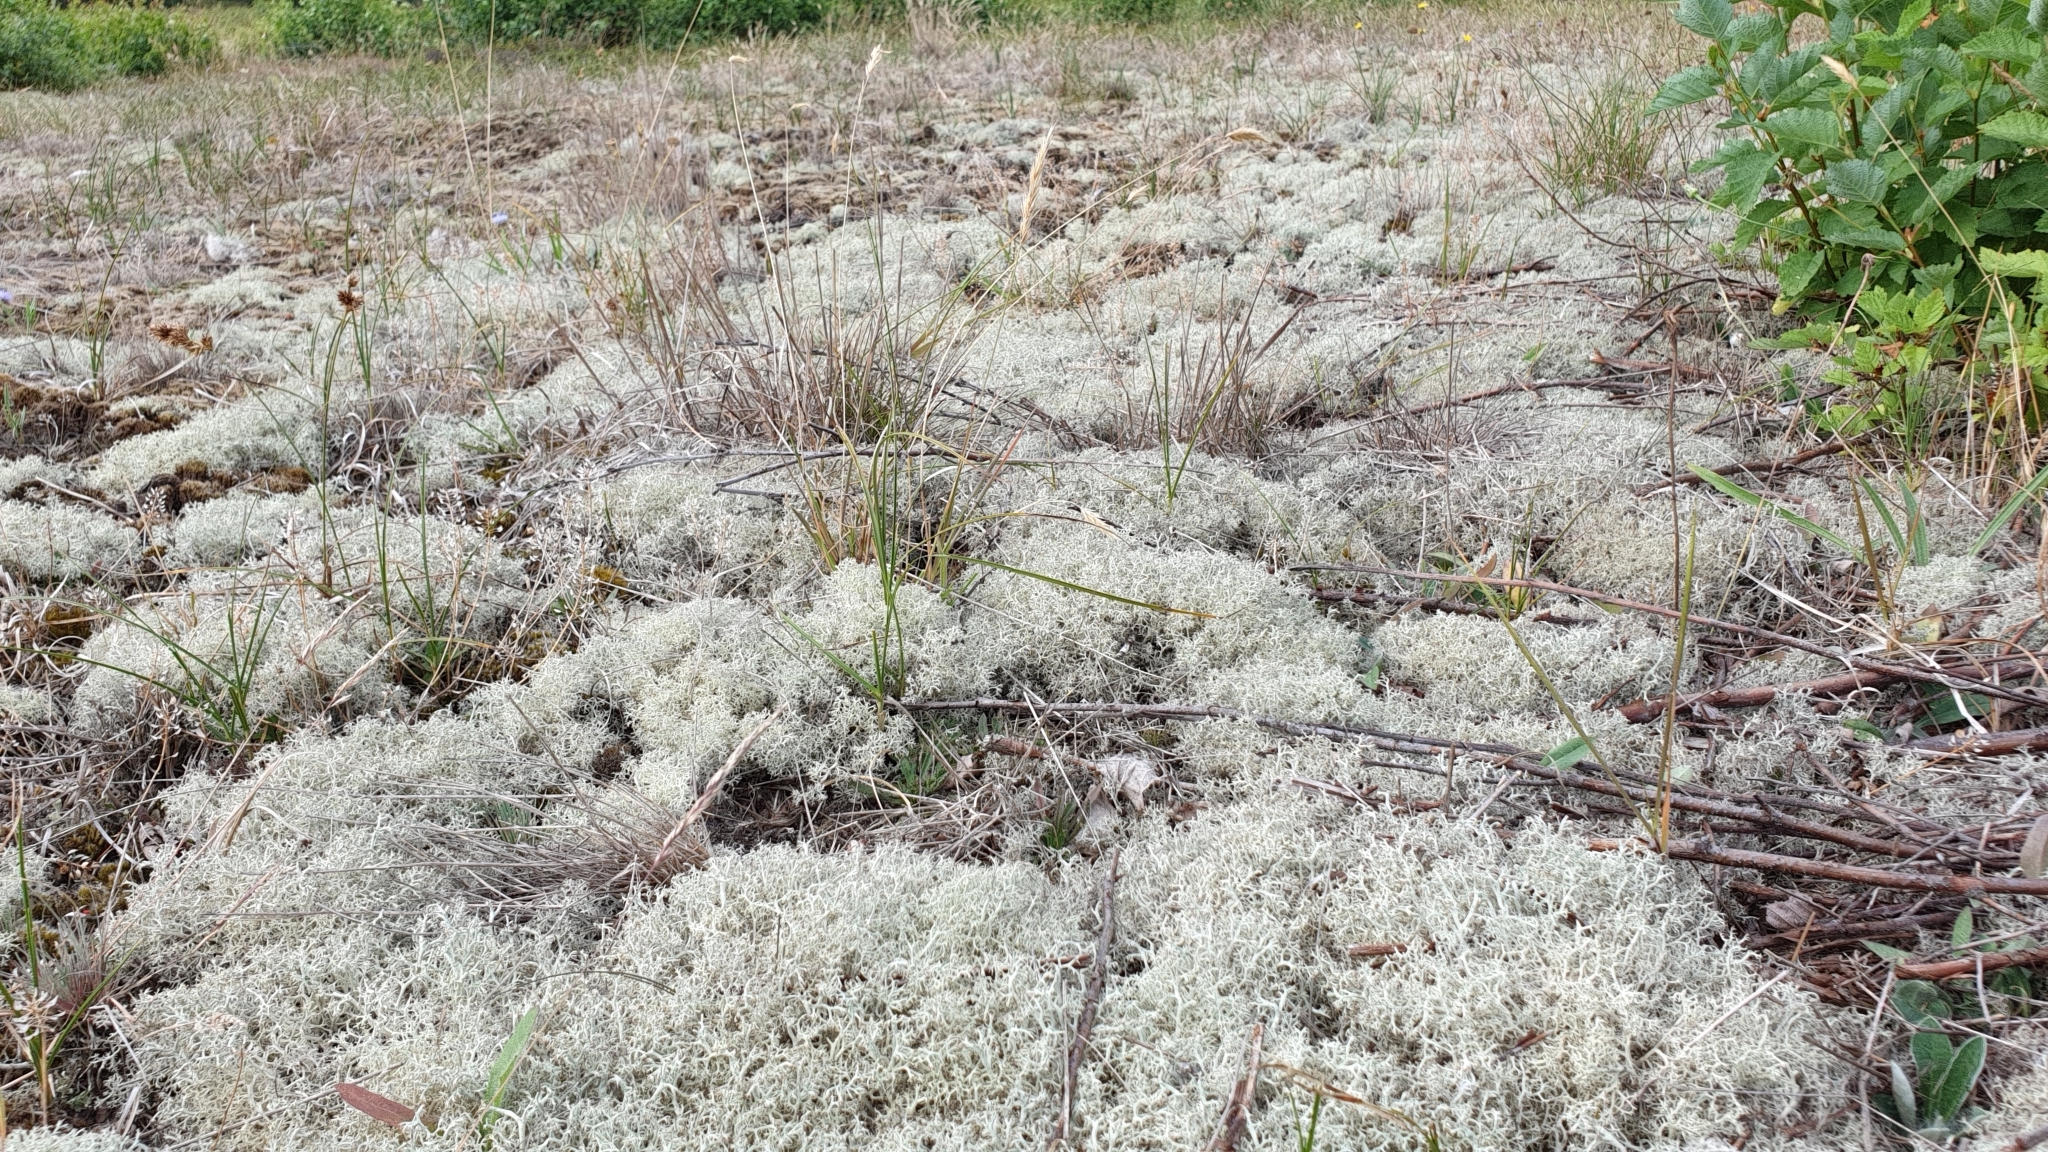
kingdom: Fungi
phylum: Ascomycota
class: Lecanoromycetes
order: Lecanorales
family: Cladoniaceae
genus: Cladonia
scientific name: Cladonia portentosa
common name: Reindeer lichen
